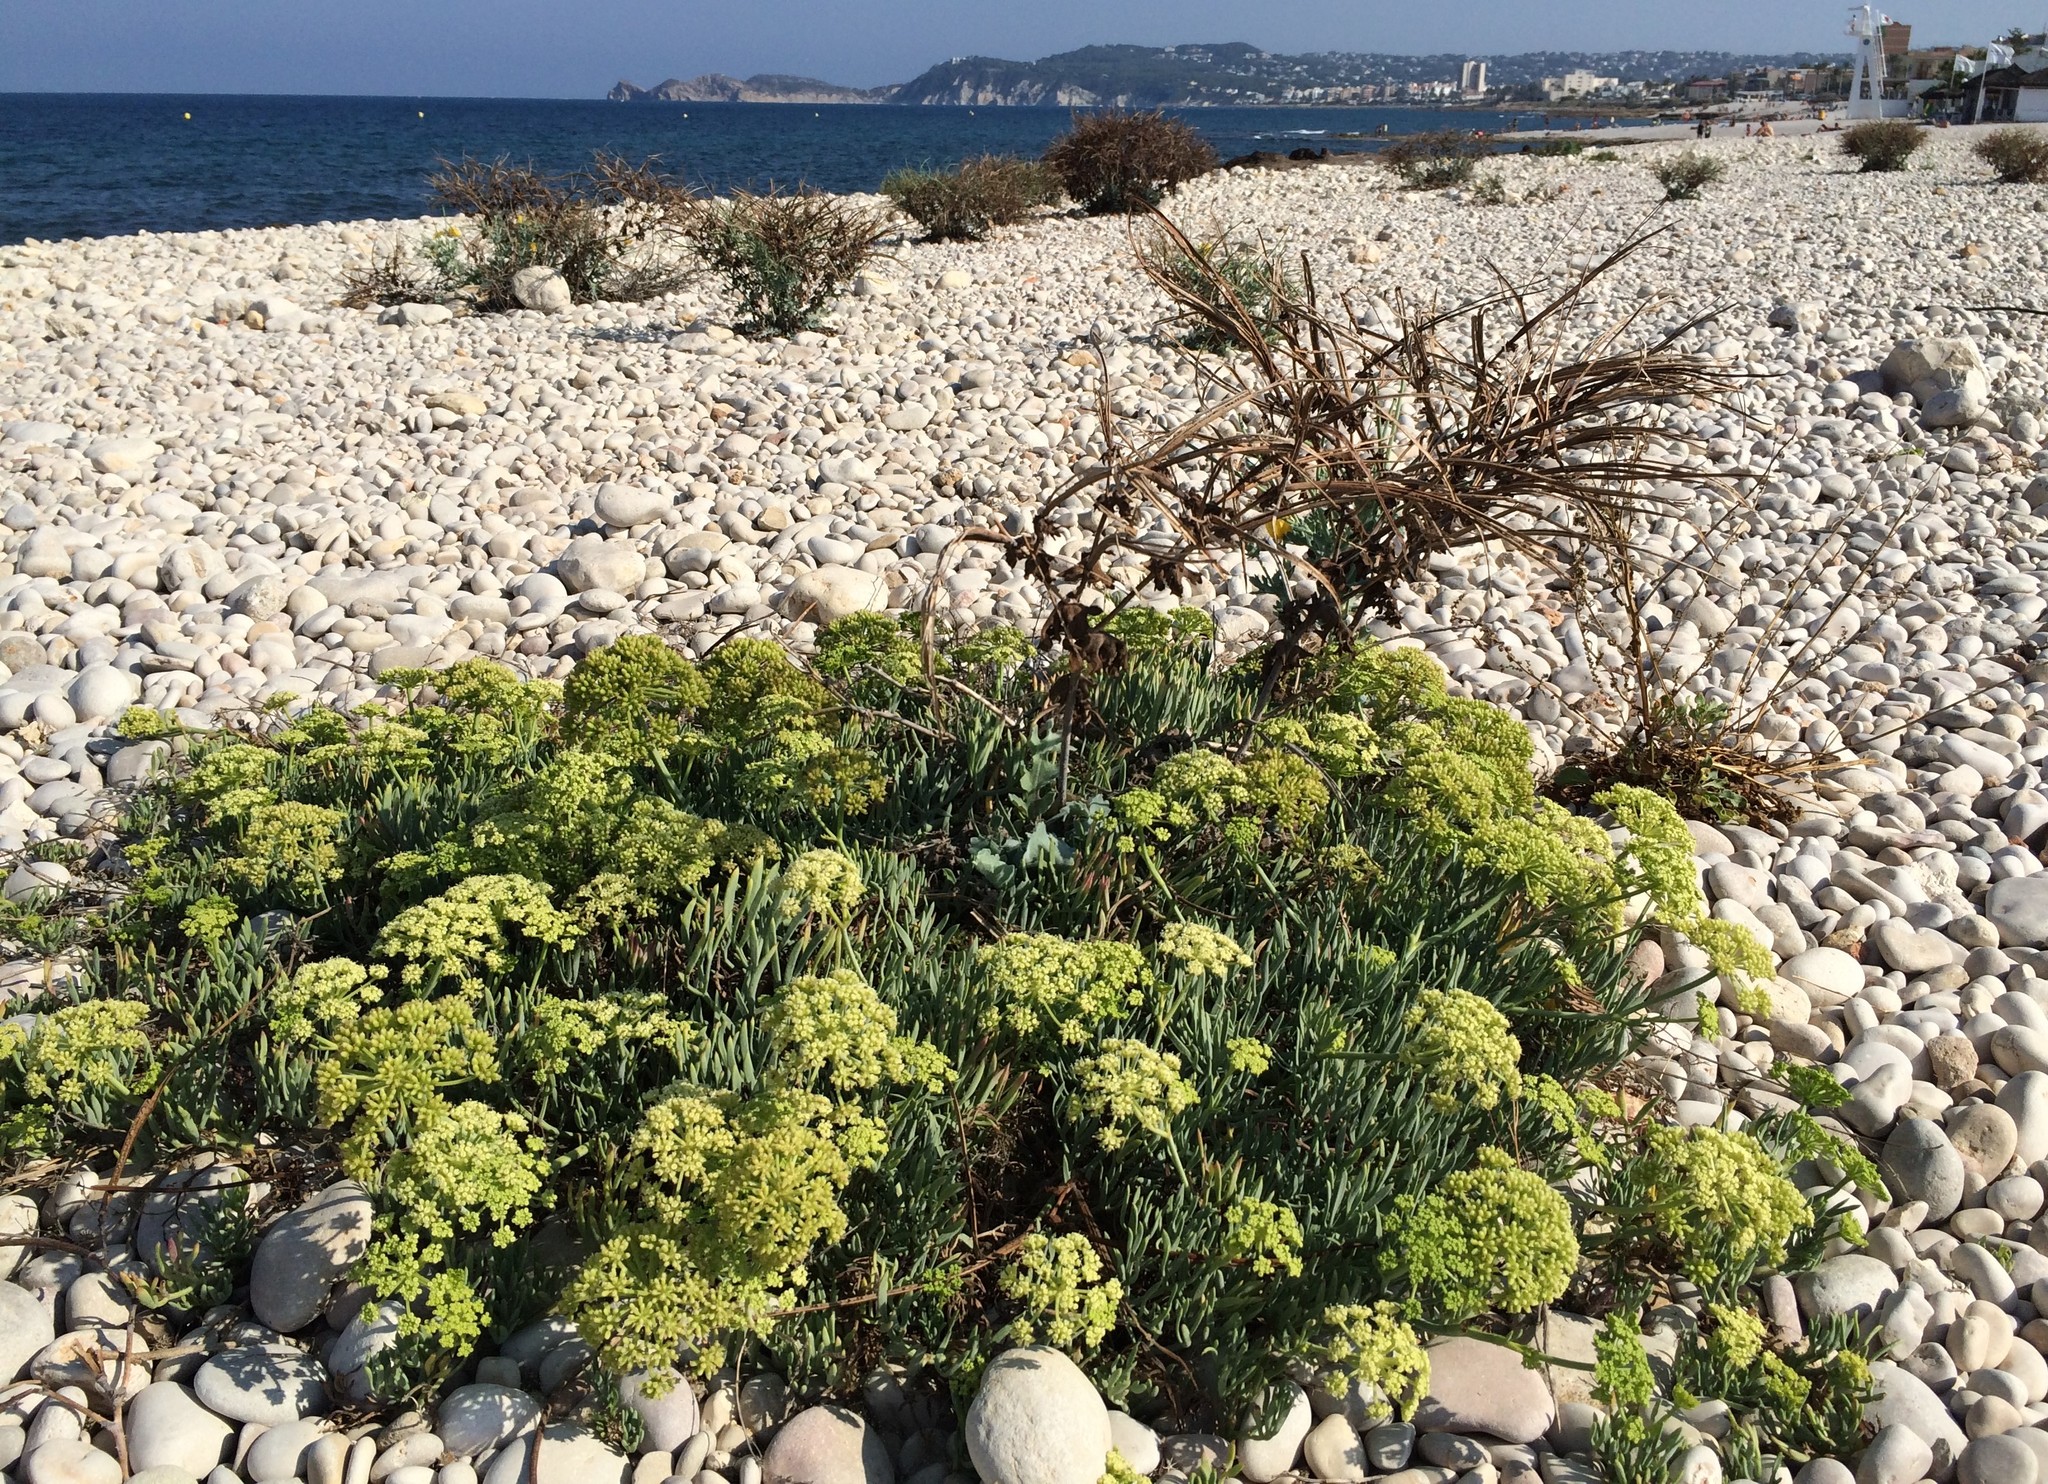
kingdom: Plantae
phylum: Tracheophyta
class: Magnoliopsida
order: Apiales
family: Apiaceae
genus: Crithmum
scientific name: Crithmum maritimum
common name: Rock samphire
